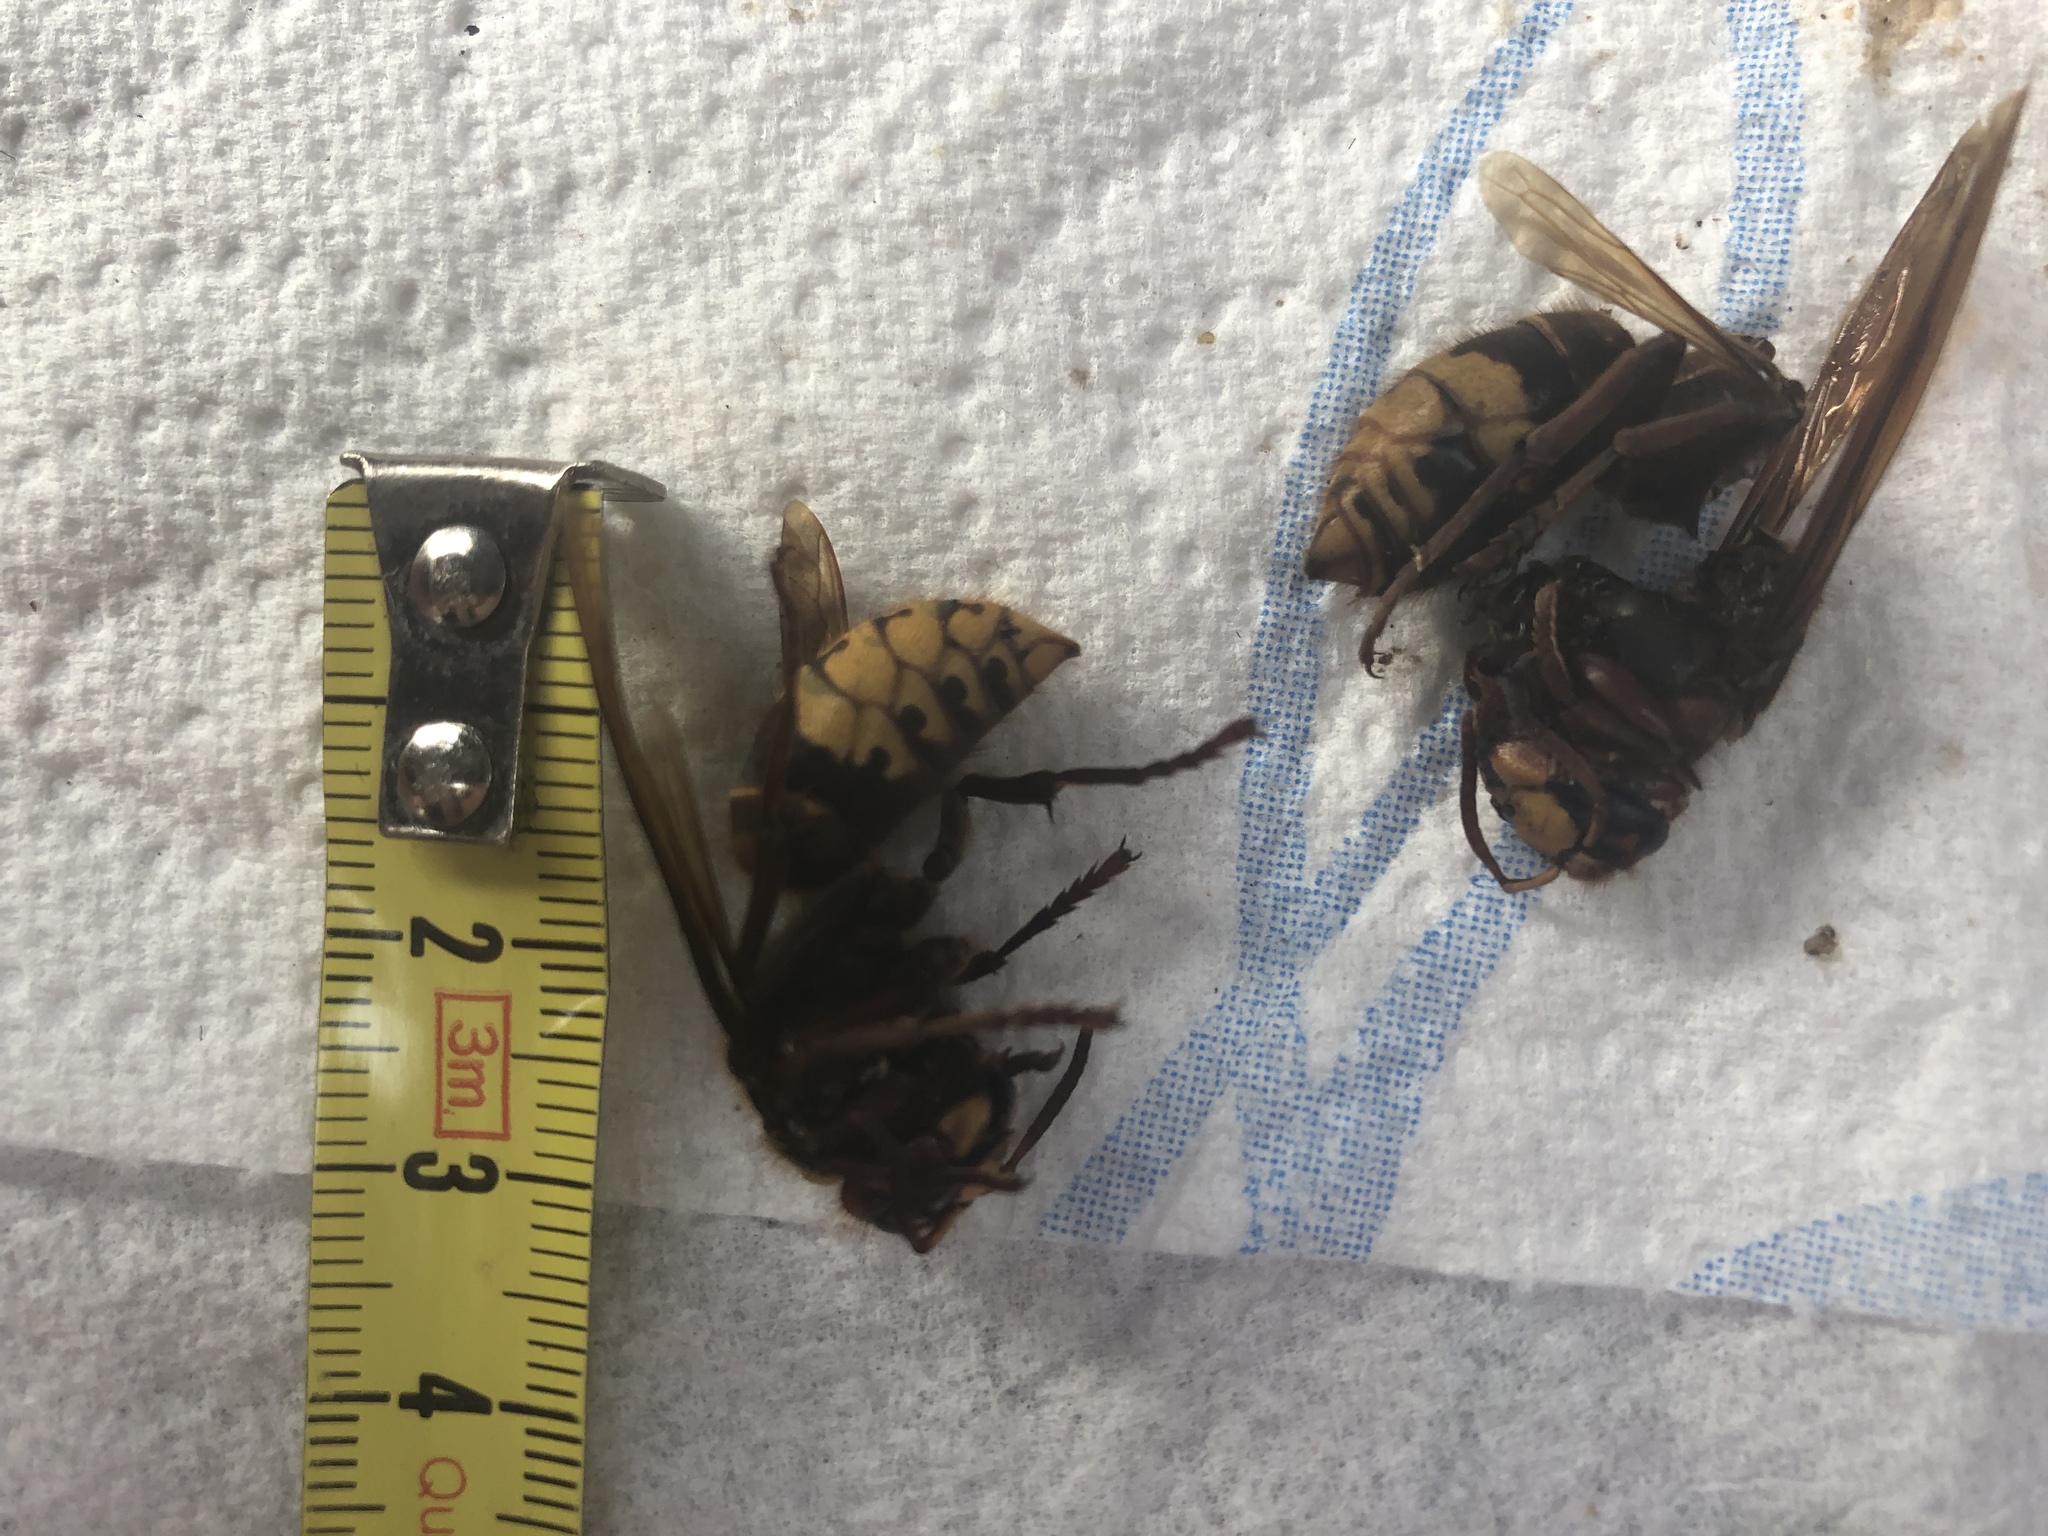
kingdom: Animalia
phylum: Arthropoda
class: Insecta
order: Hymenoptera
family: Vespidae
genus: Vespa
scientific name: Vespa crabro
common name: Hornet
